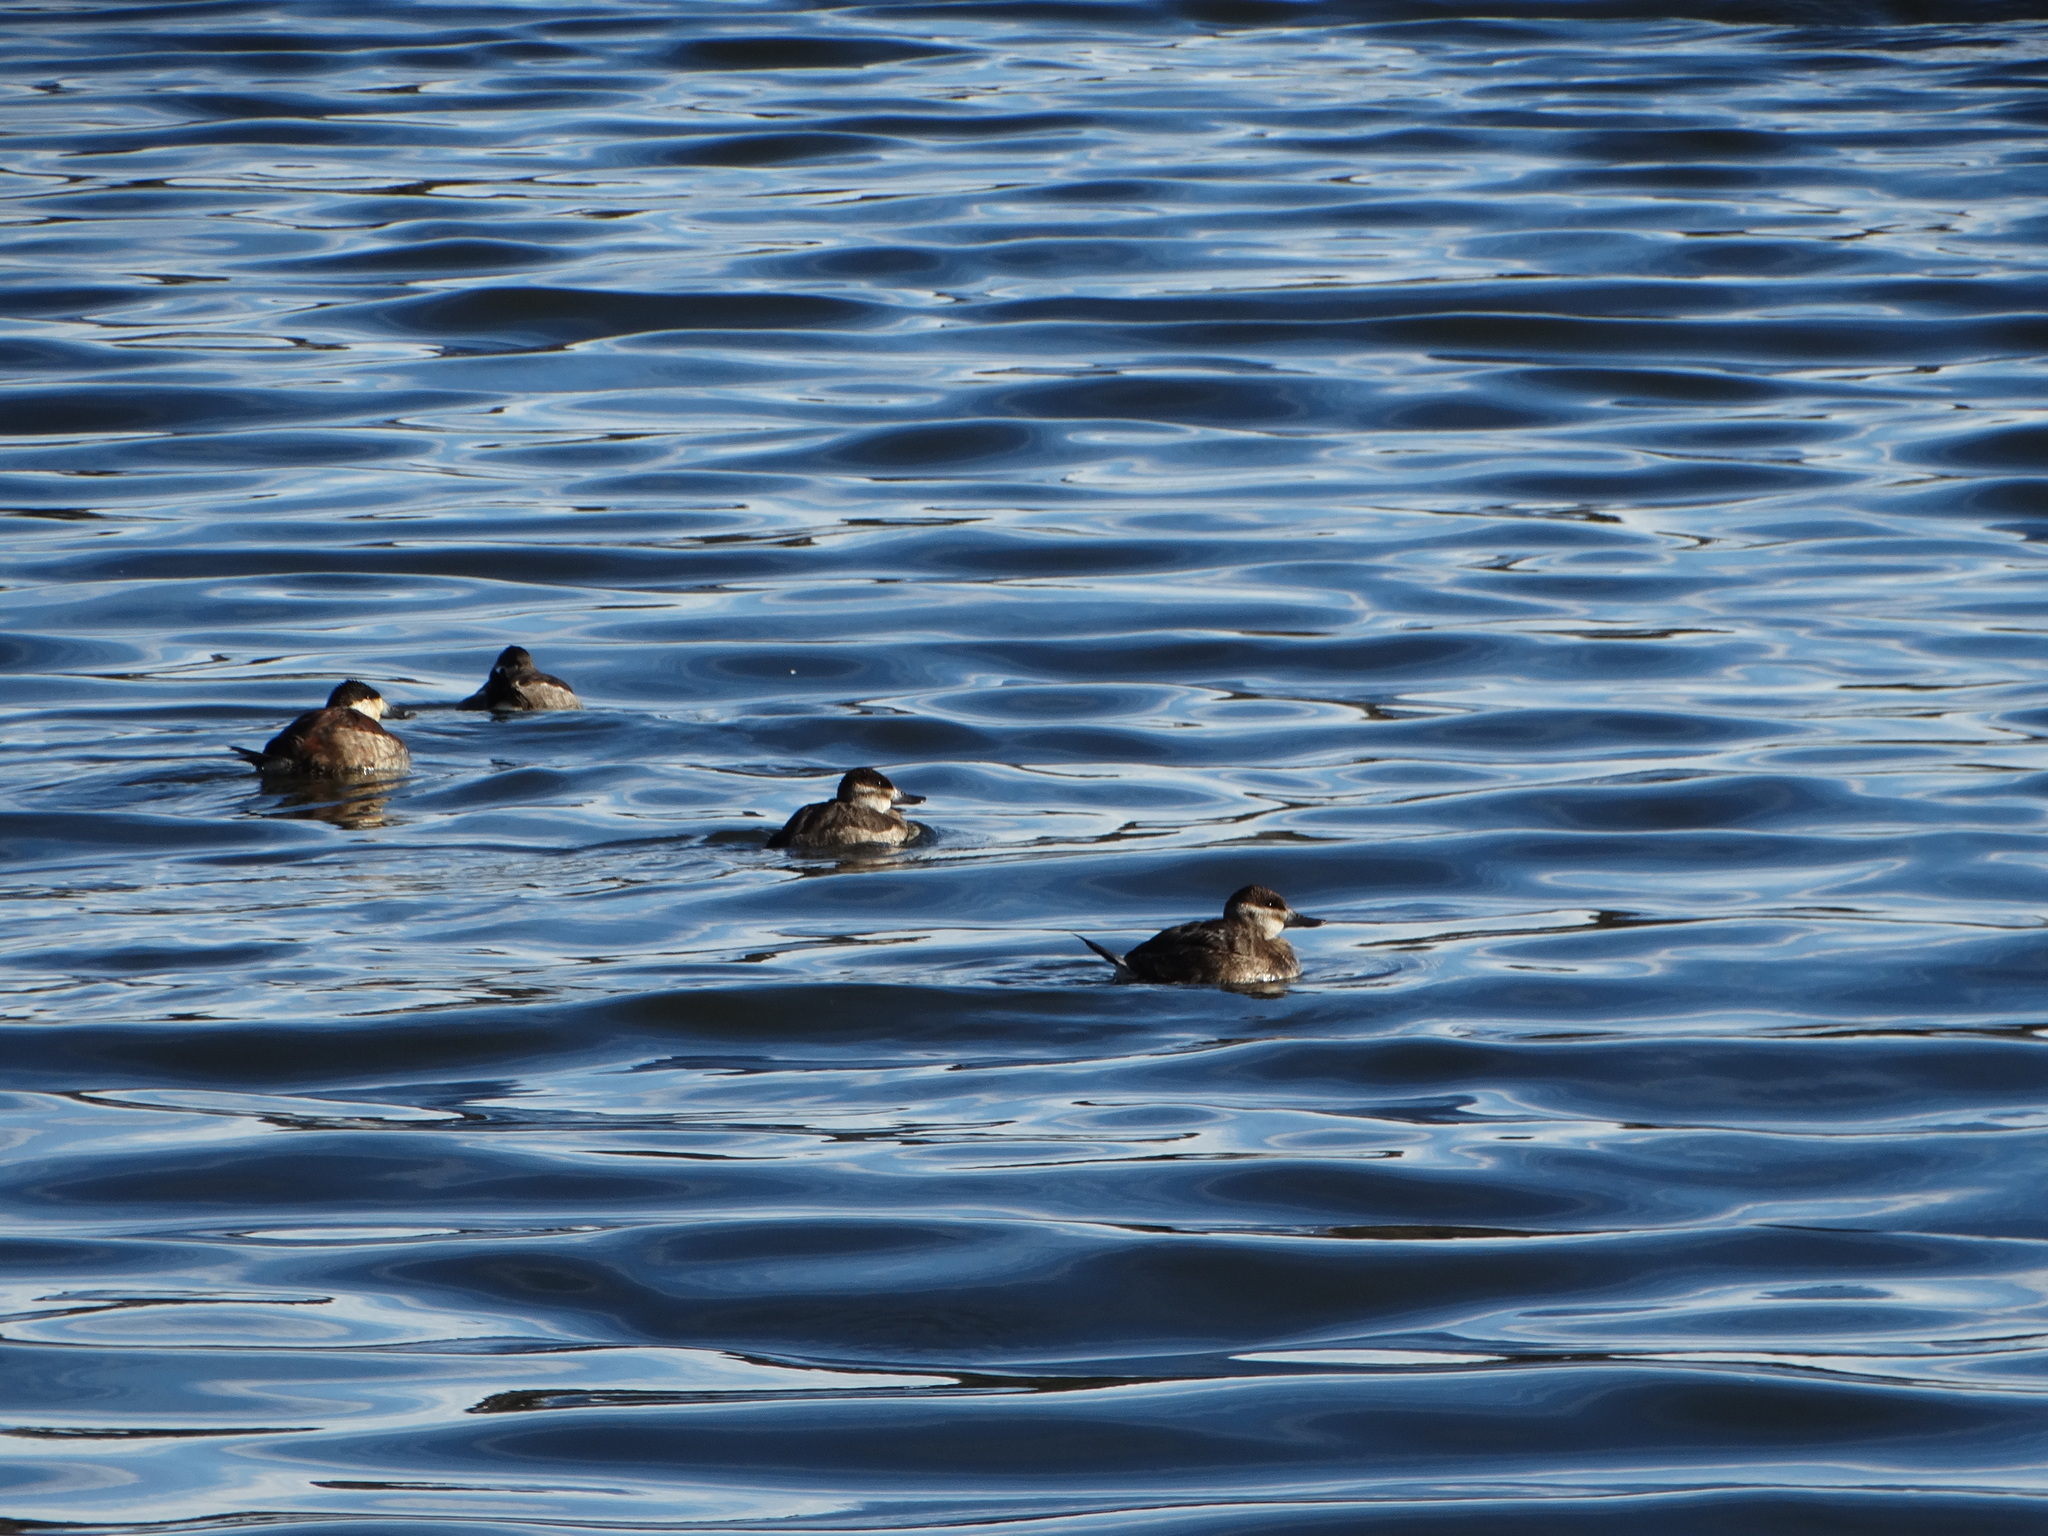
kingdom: Animalia
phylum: Chordata
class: Aves
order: Anseriformes
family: Anatidae
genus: Oxyura
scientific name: Oxyura jamaicensis
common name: Ruddy duck
